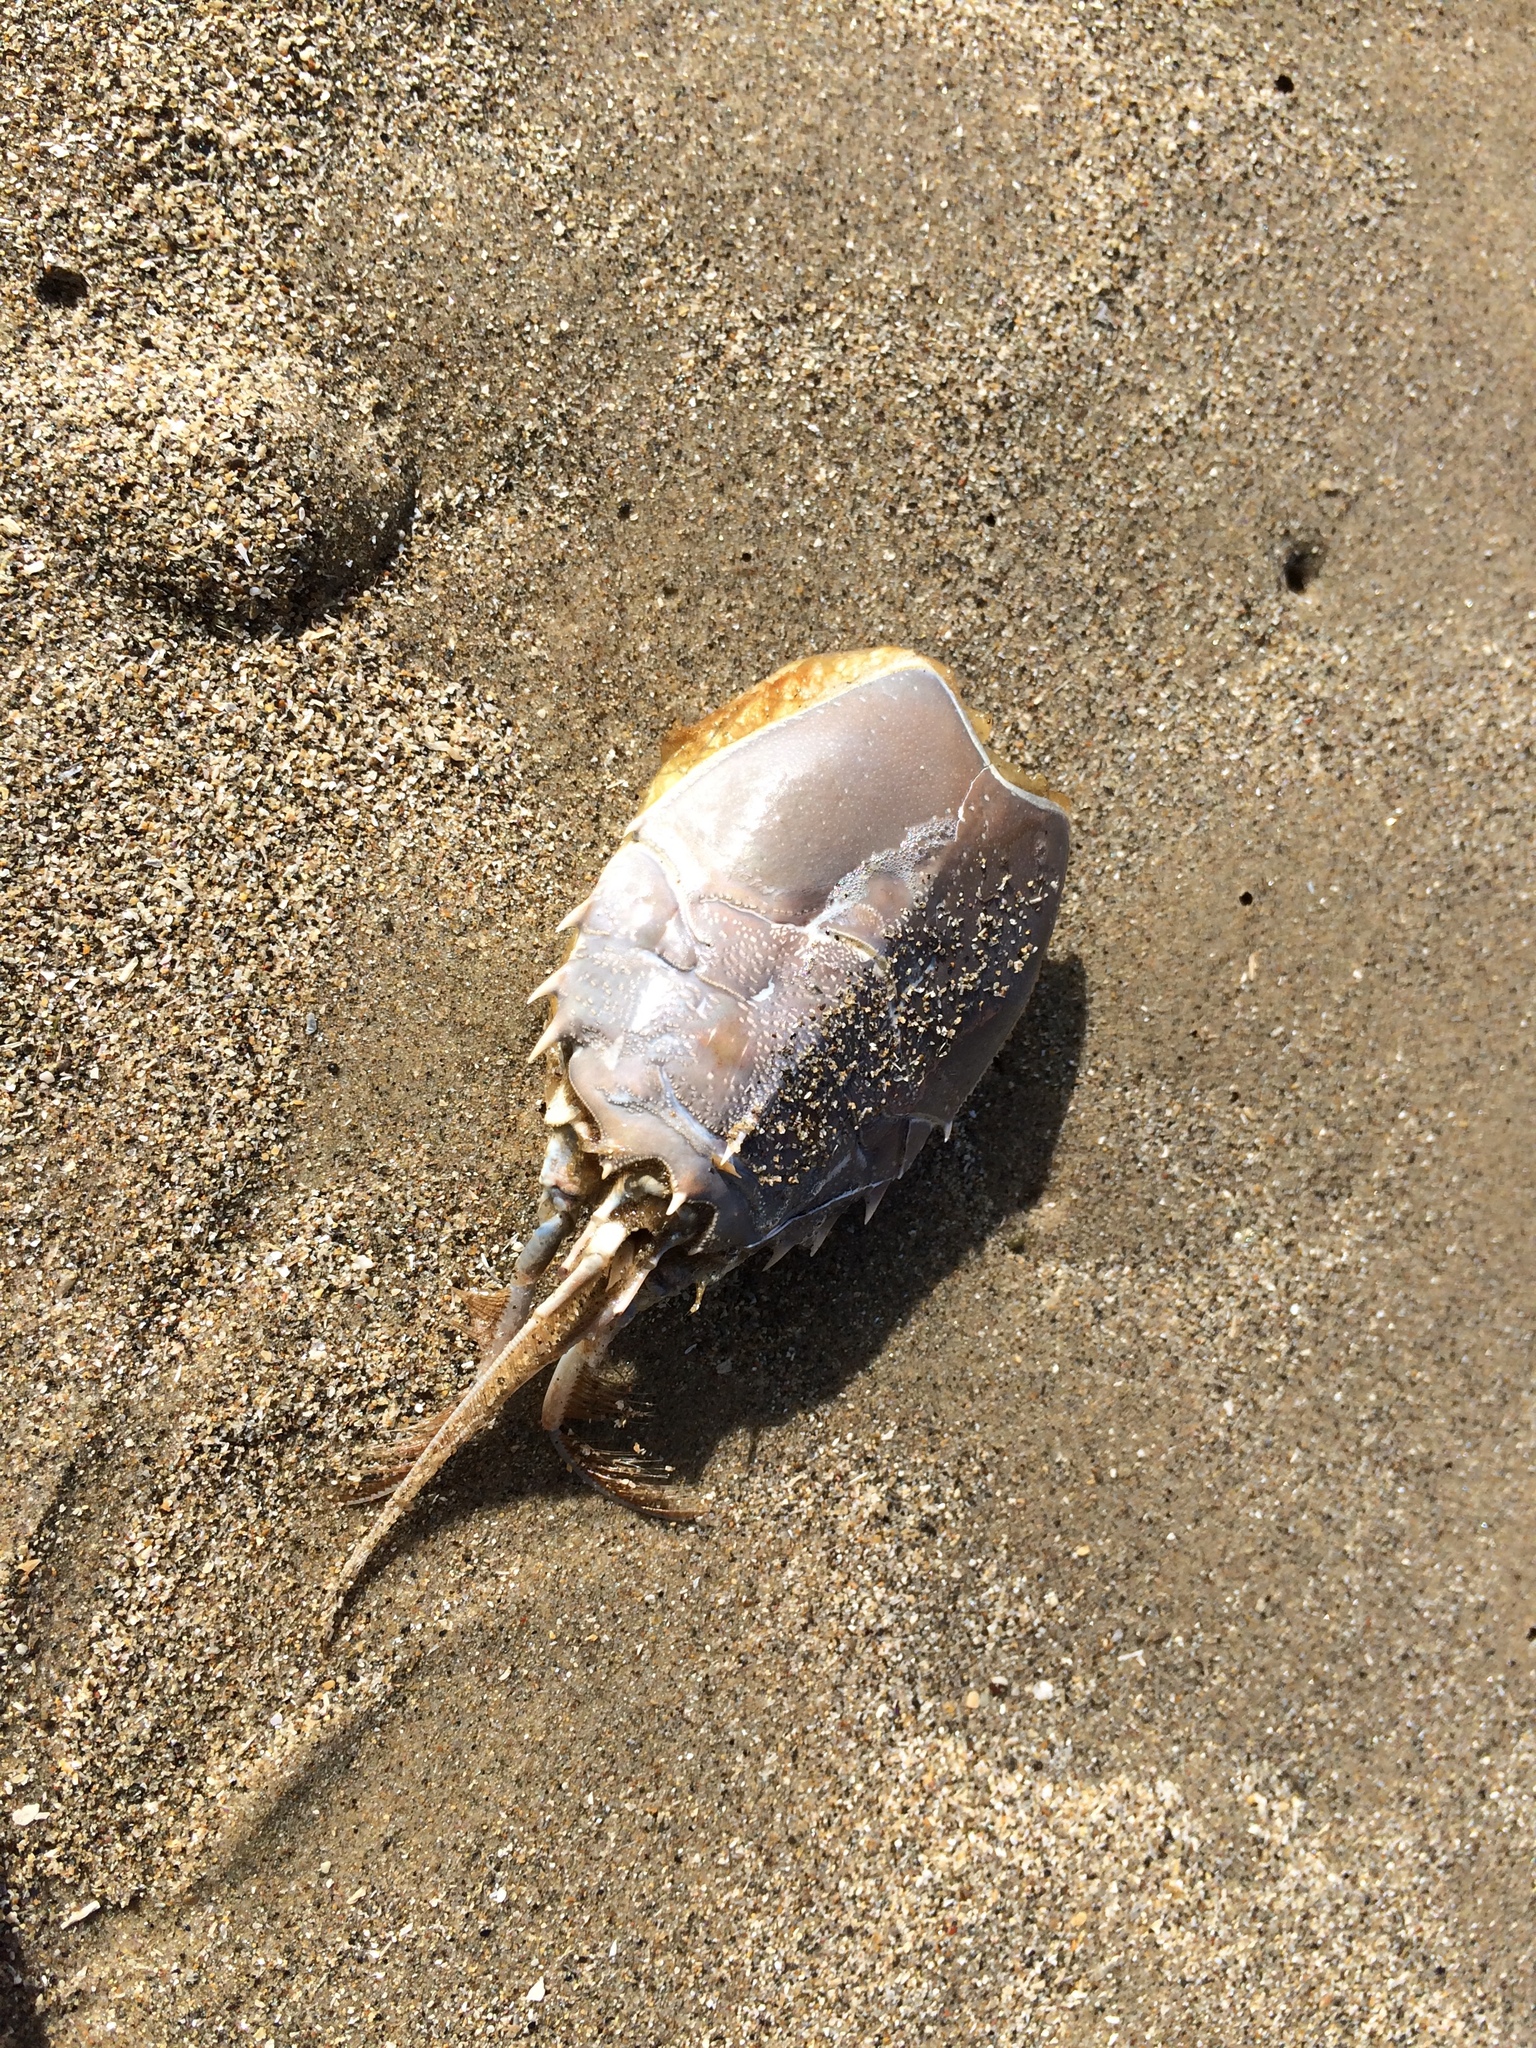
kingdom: Animalia
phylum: Arthropoda
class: Malacostraca
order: Decapoda
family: Blepharipodidae
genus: Blepharipoda
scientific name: Blepharipoda occidentalis
